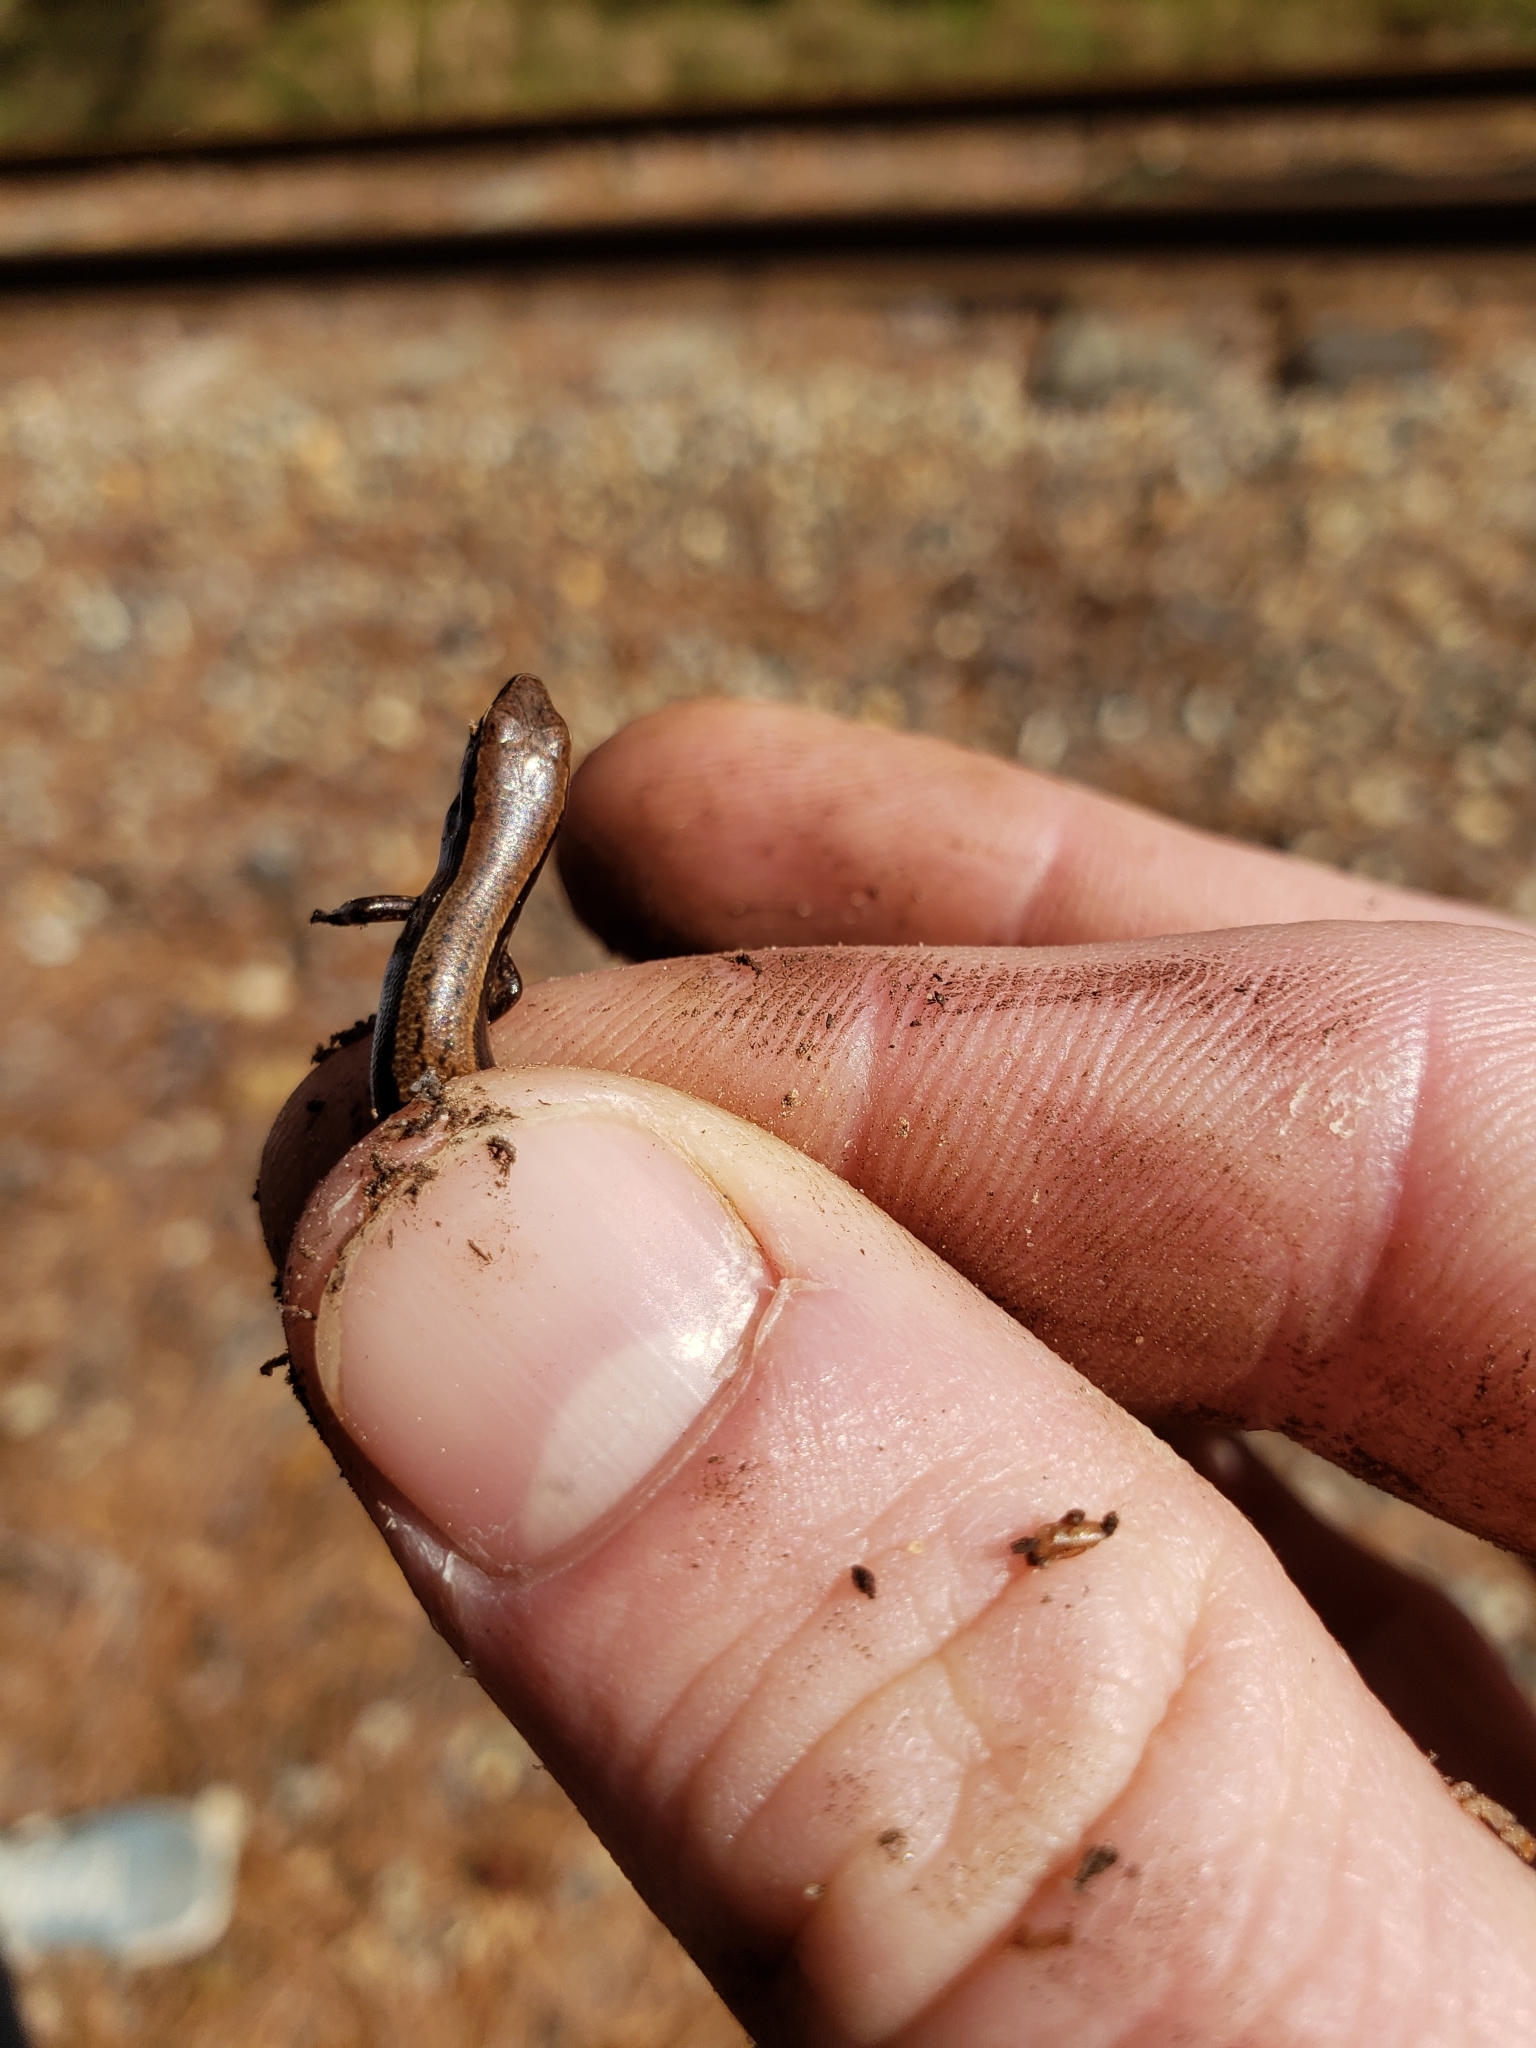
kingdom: Animalia
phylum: Chordata
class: Squamata
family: Scincidae
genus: Scincella
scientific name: Scincella lateralis
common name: Ground skink
